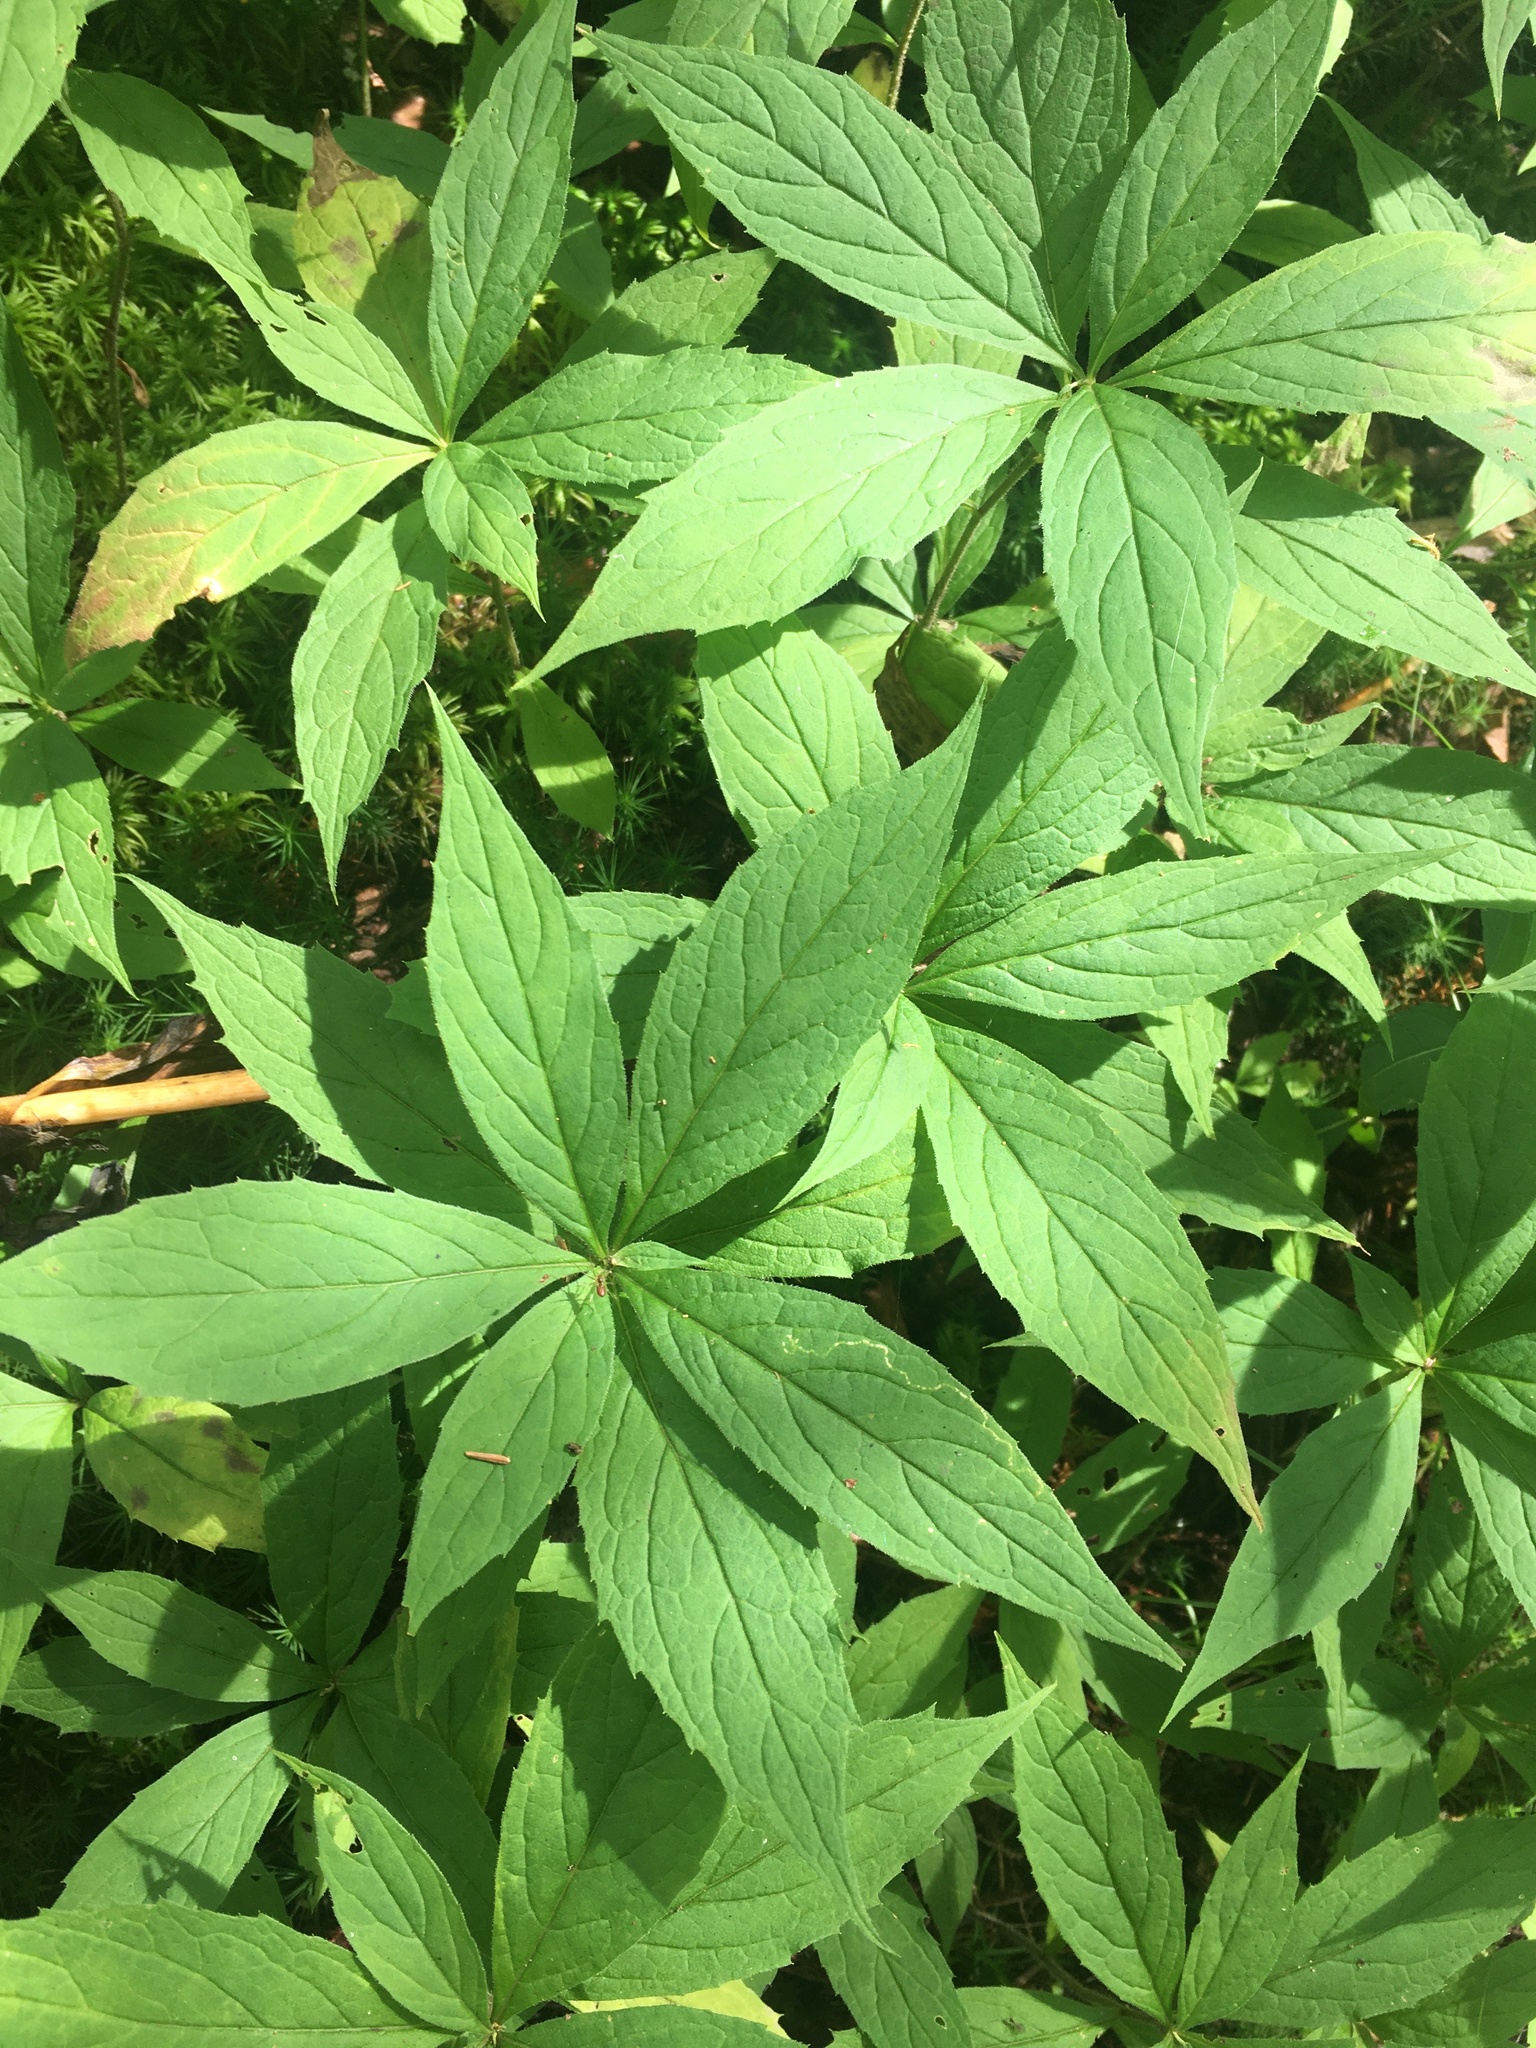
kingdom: Plantae
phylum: Tracheophyta
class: Magnoliopsida
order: Asterales
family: Asteraceae
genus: Oclemena
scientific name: Oclemena acuminata
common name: Mountain aster
